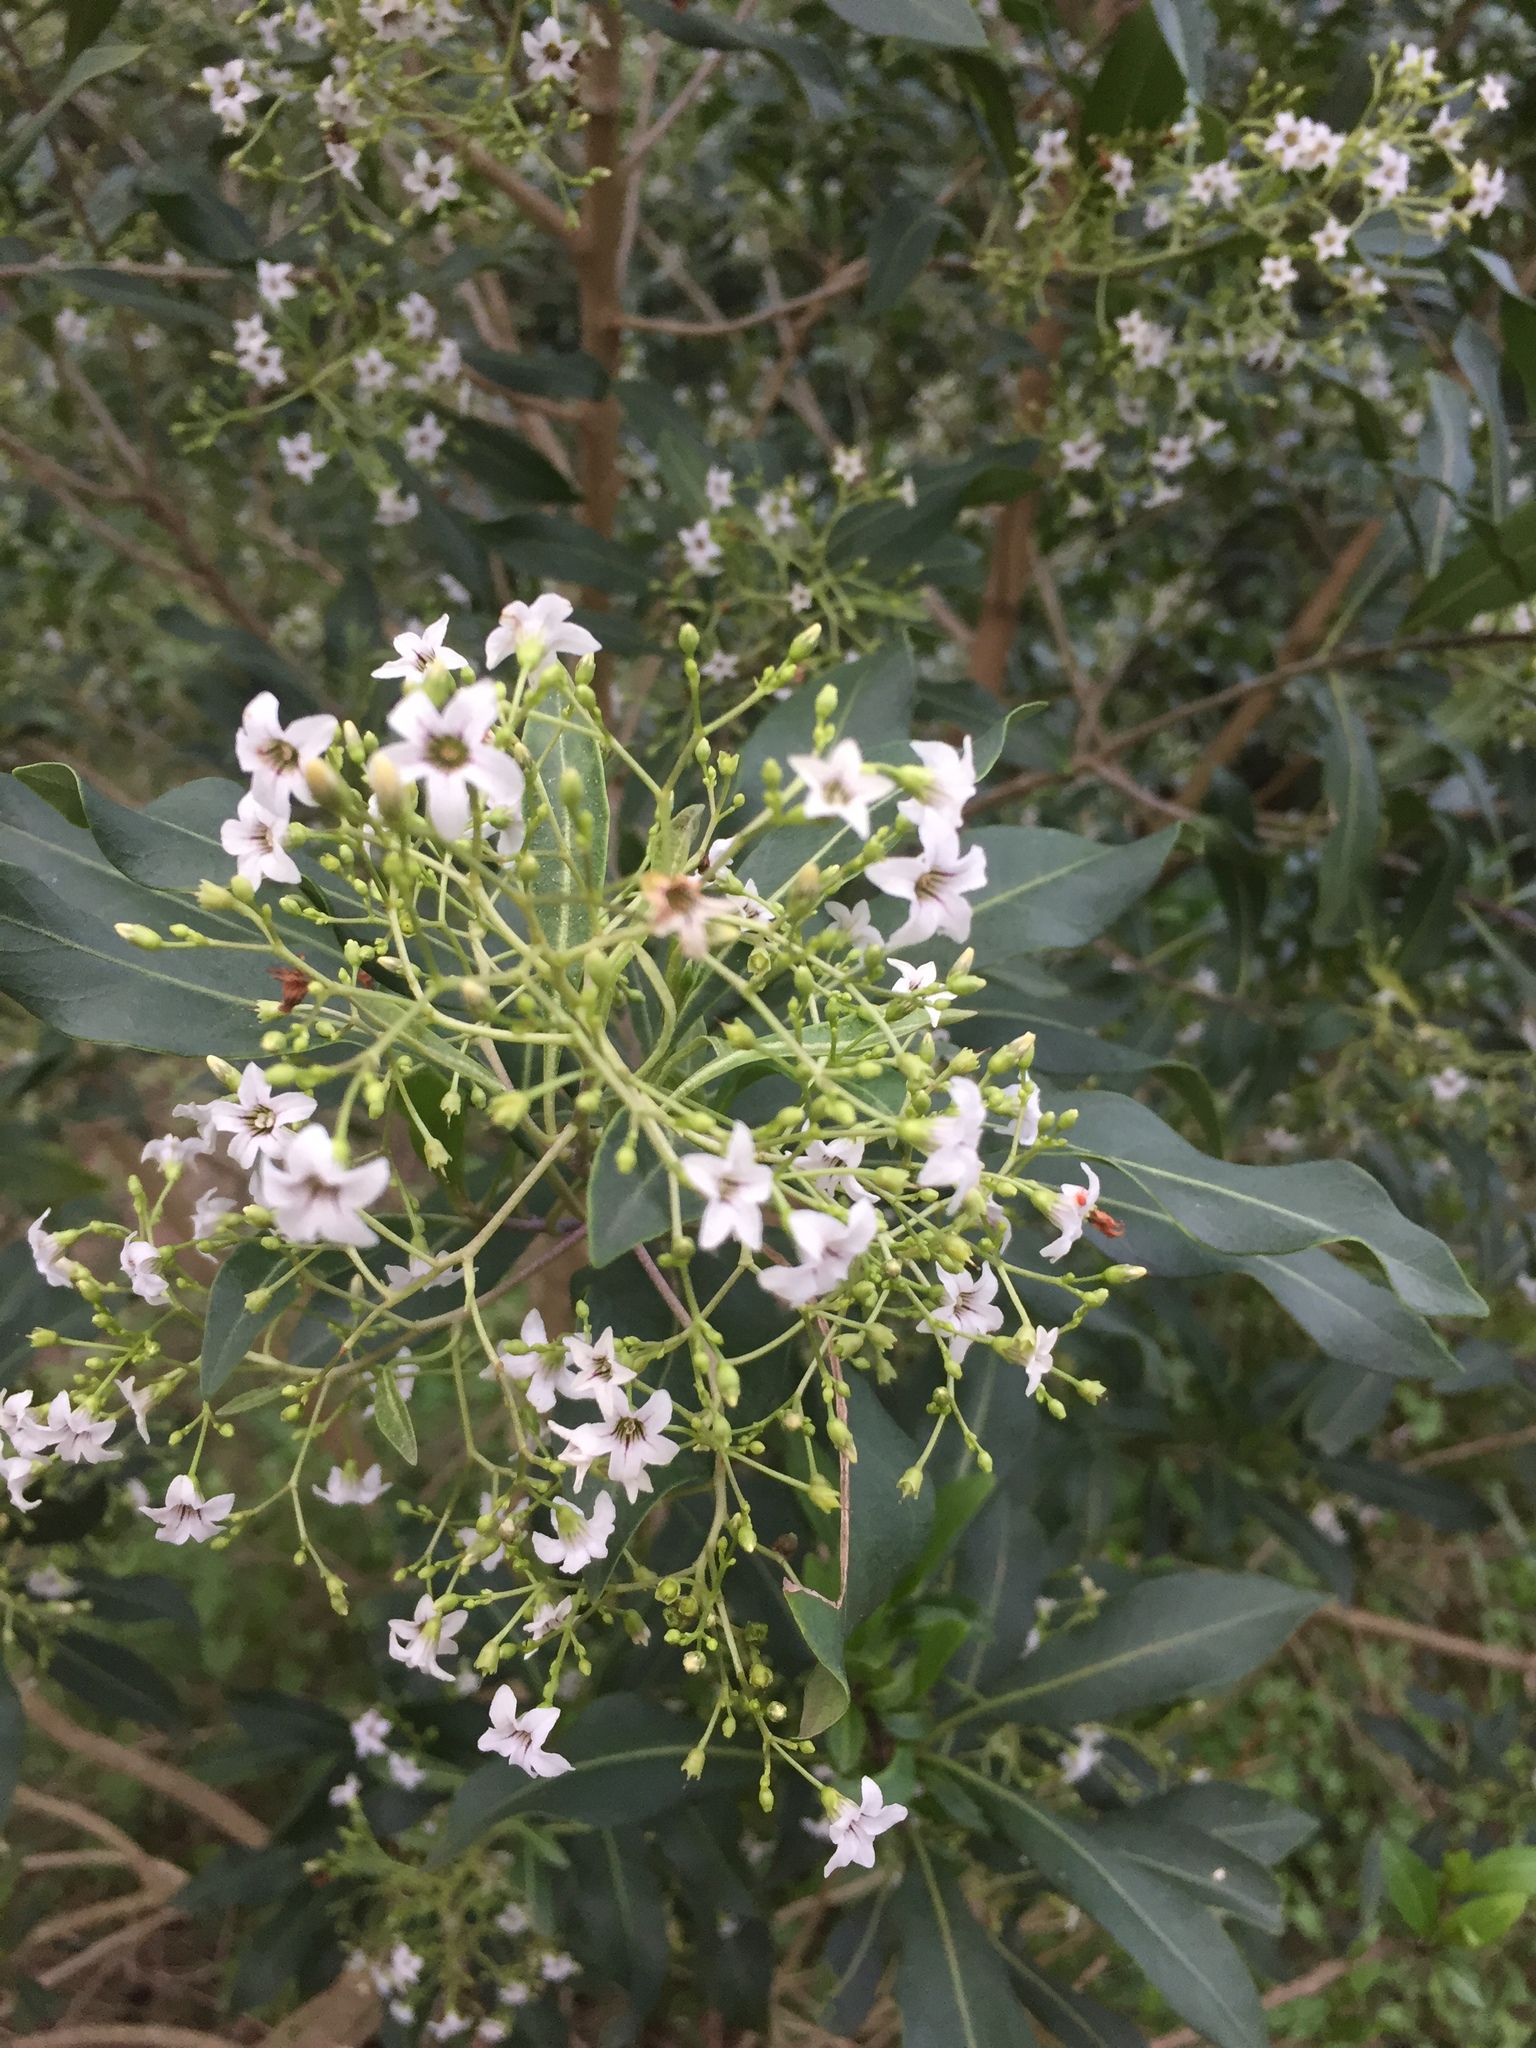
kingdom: Plantae
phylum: Tracheophyta
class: Magnoliopsida
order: Solanales
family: Solanaceae
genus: Duboisia
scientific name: Duboisia myoporoides
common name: Corkwoodtree
